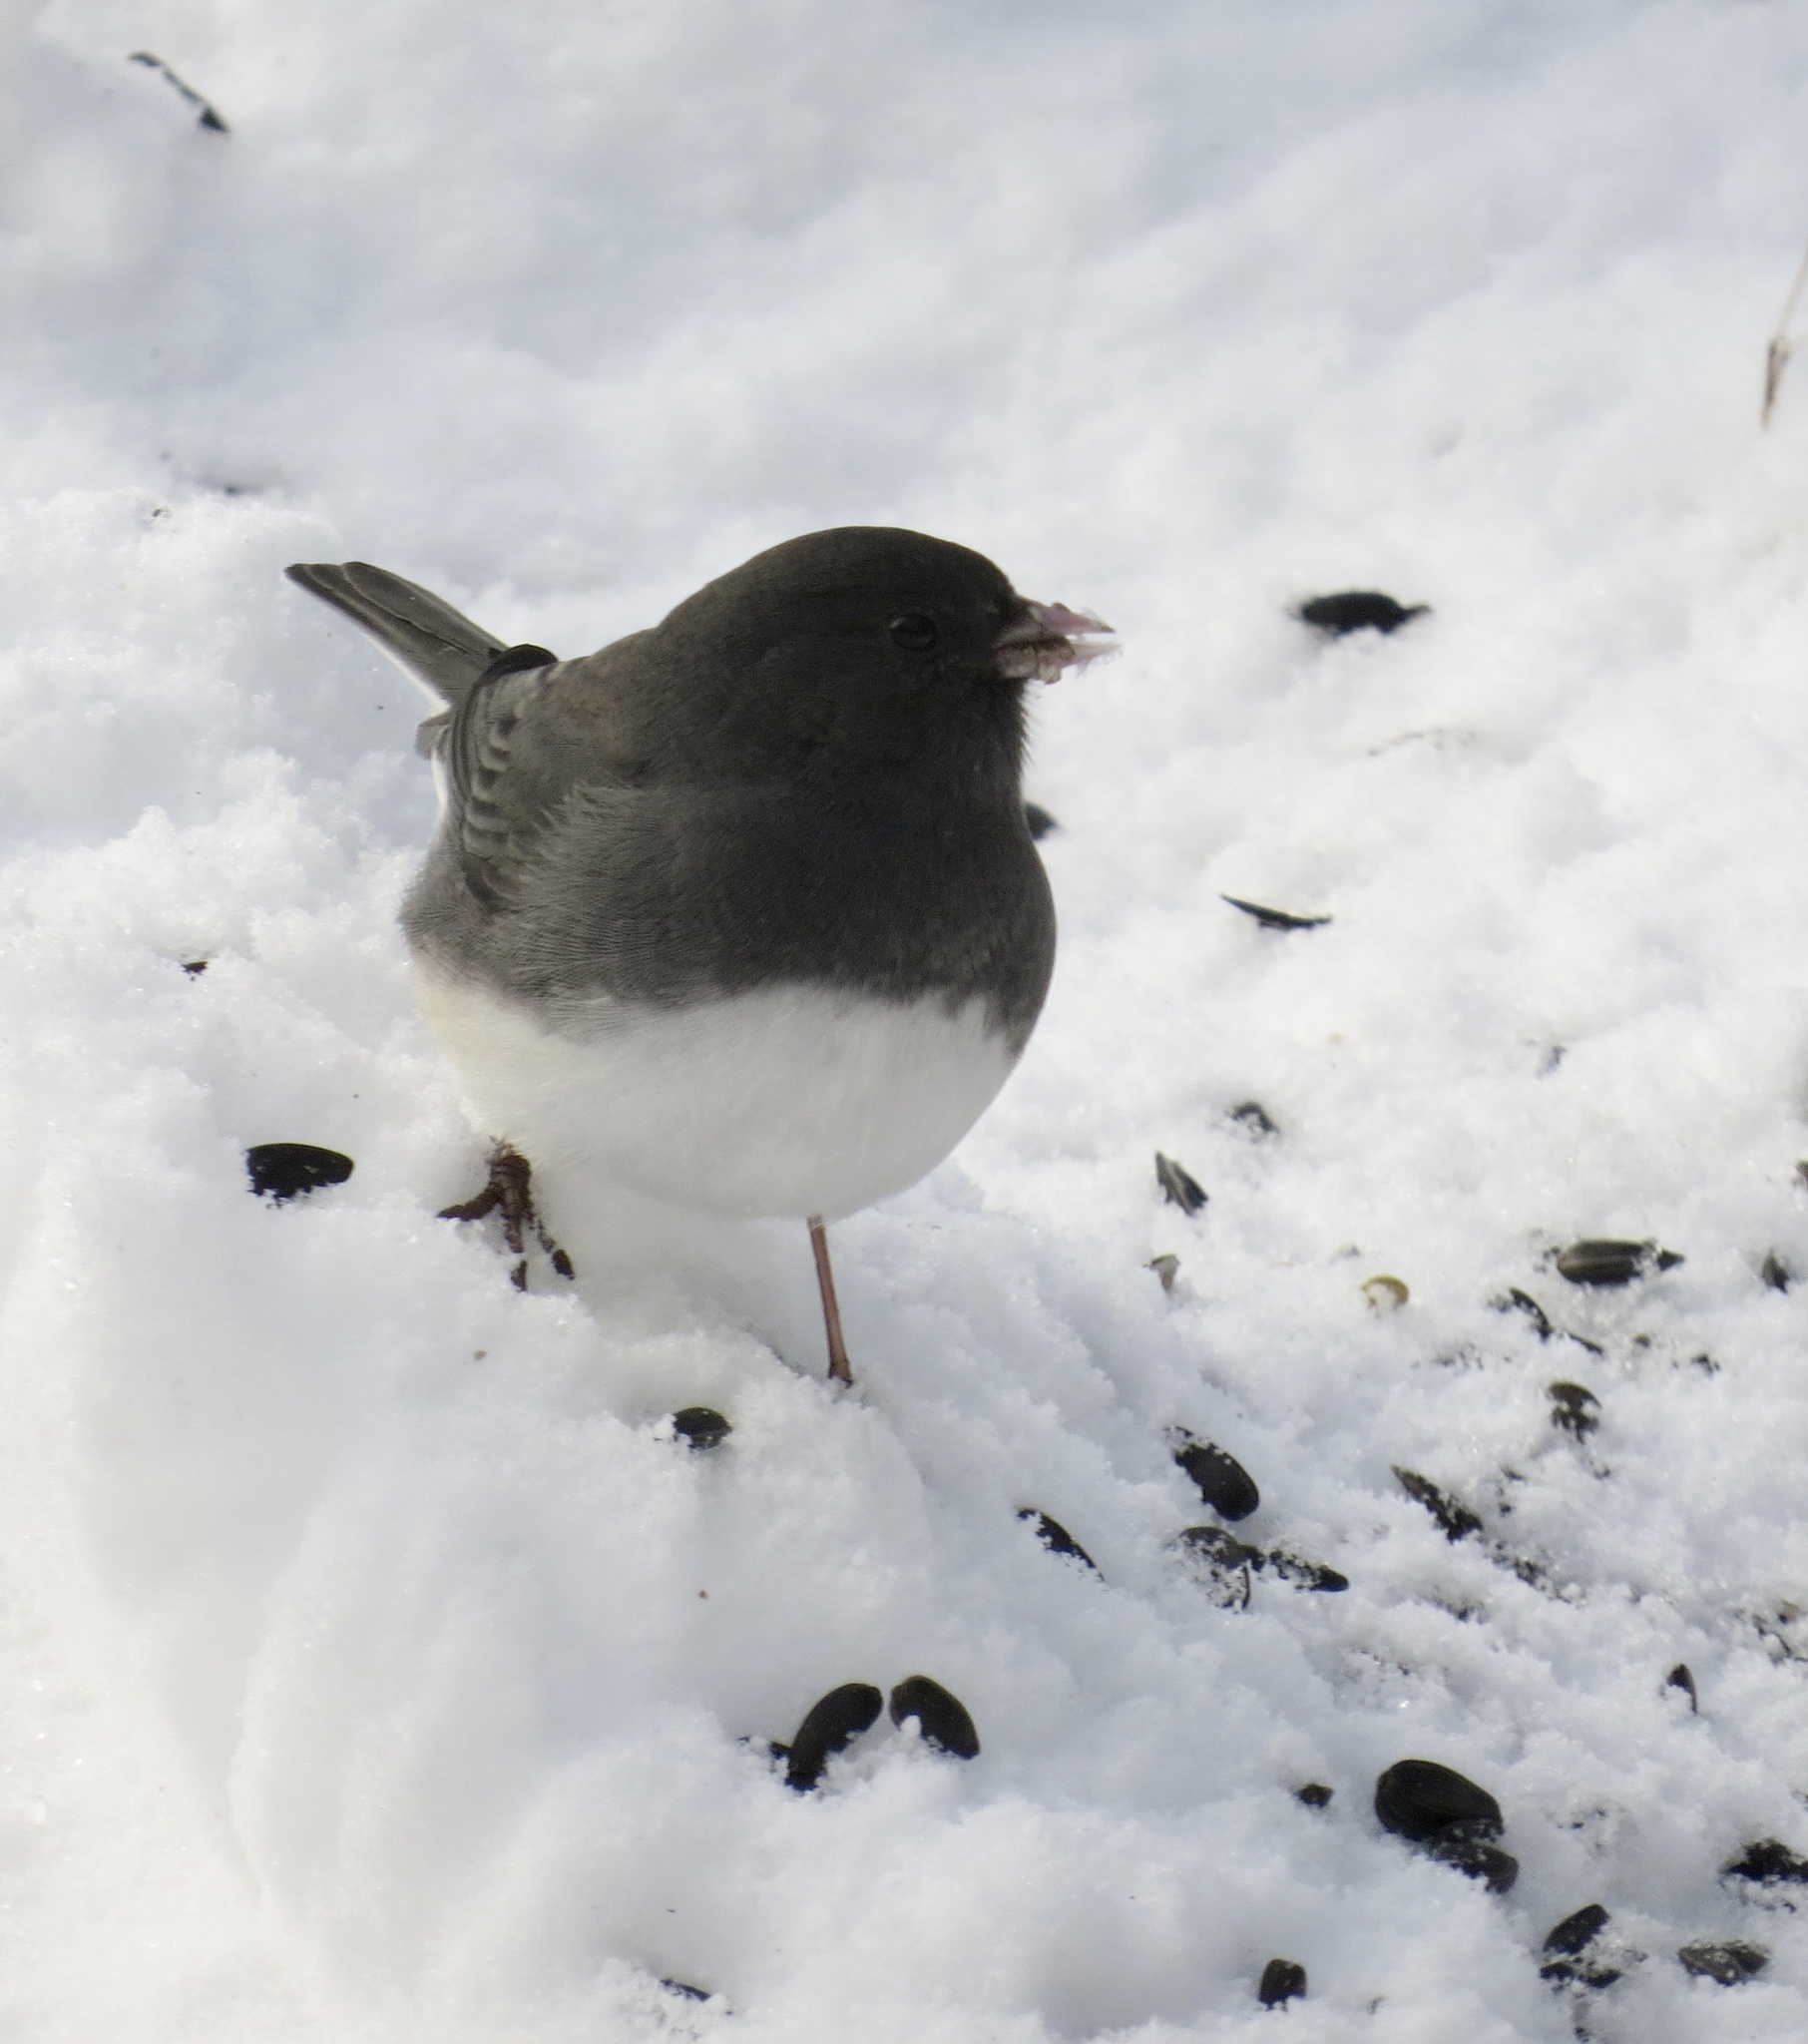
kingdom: Animalia
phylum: Chordata
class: Aves
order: Passeriformes
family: Passerellidae
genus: Junco
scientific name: Junco hyemalis
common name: Dark-eyed junco
